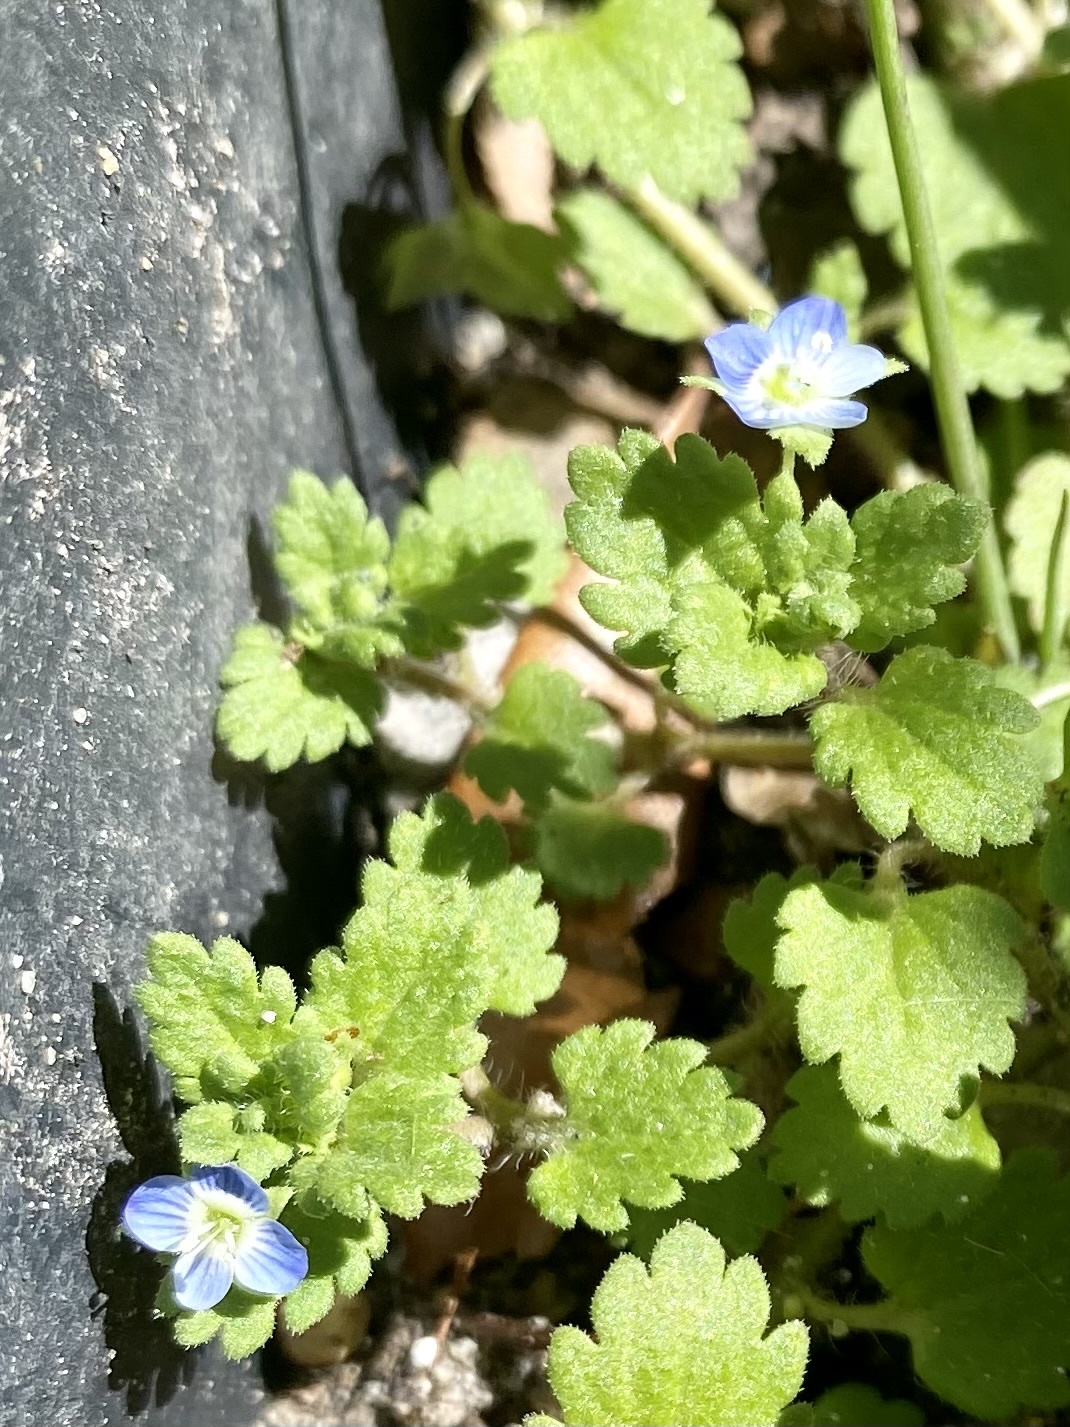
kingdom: Plantae
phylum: Tracheophyta
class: Magnoliopsida
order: Lamiales
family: Plantaginaceae
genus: Veronica
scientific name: Veronica persica
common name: Common field-speedwell
